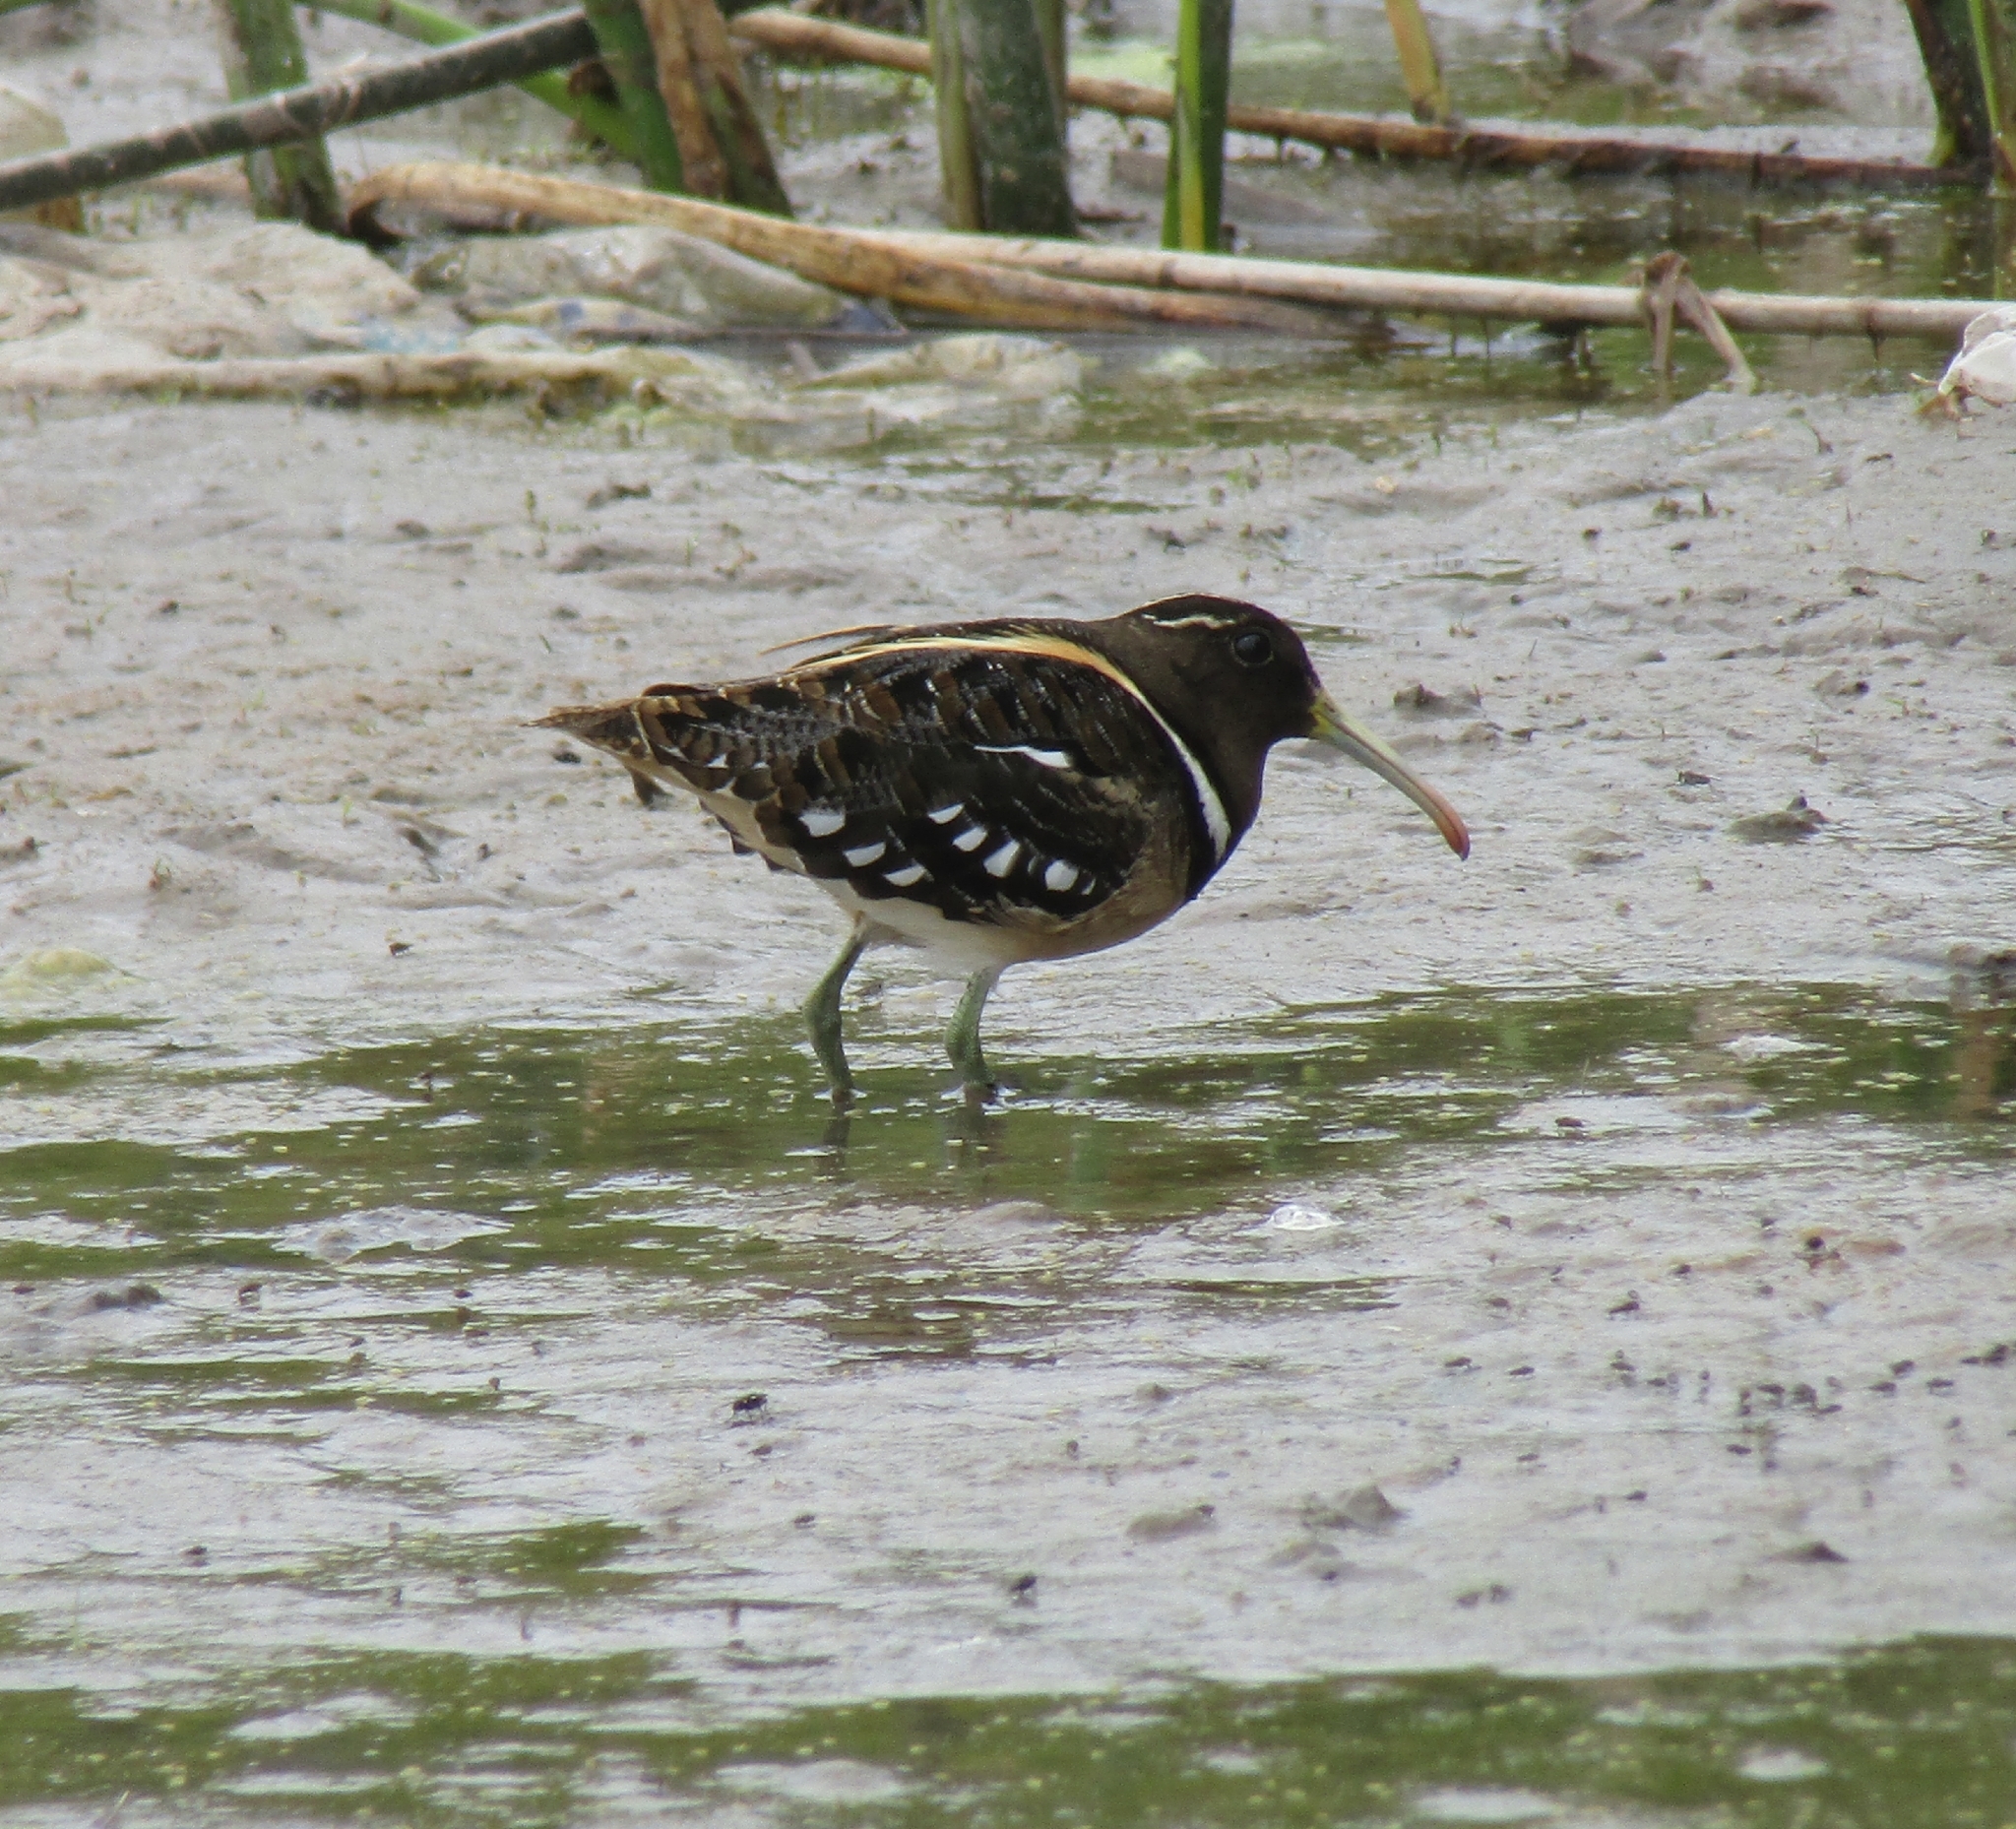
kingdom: Animalia
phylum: Chordata
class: Aves
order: Charadriiformes
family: Rostratulidae
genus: Nycticryphes
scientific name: Nycticryphes semicollaris
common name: South american painted-snipe
